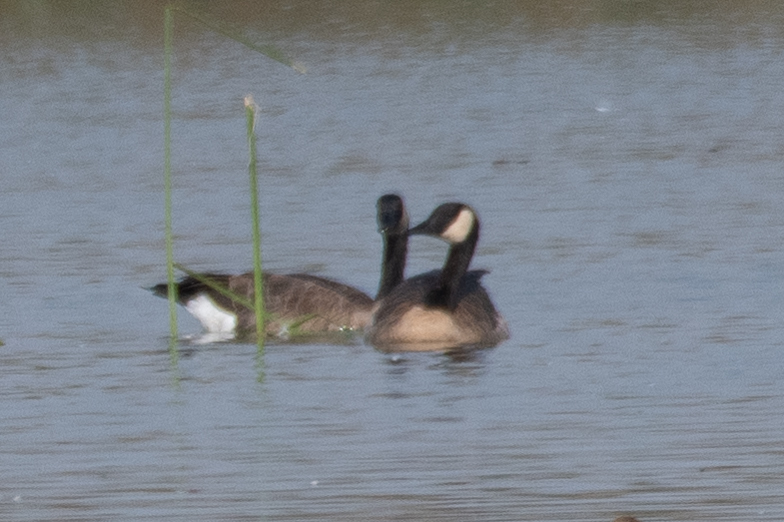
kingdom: Animalia
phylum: Chordata
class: Aves
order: Anseriformes
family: Anatidae
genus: Branta
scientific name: Branta canadensis
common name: Canada goose
